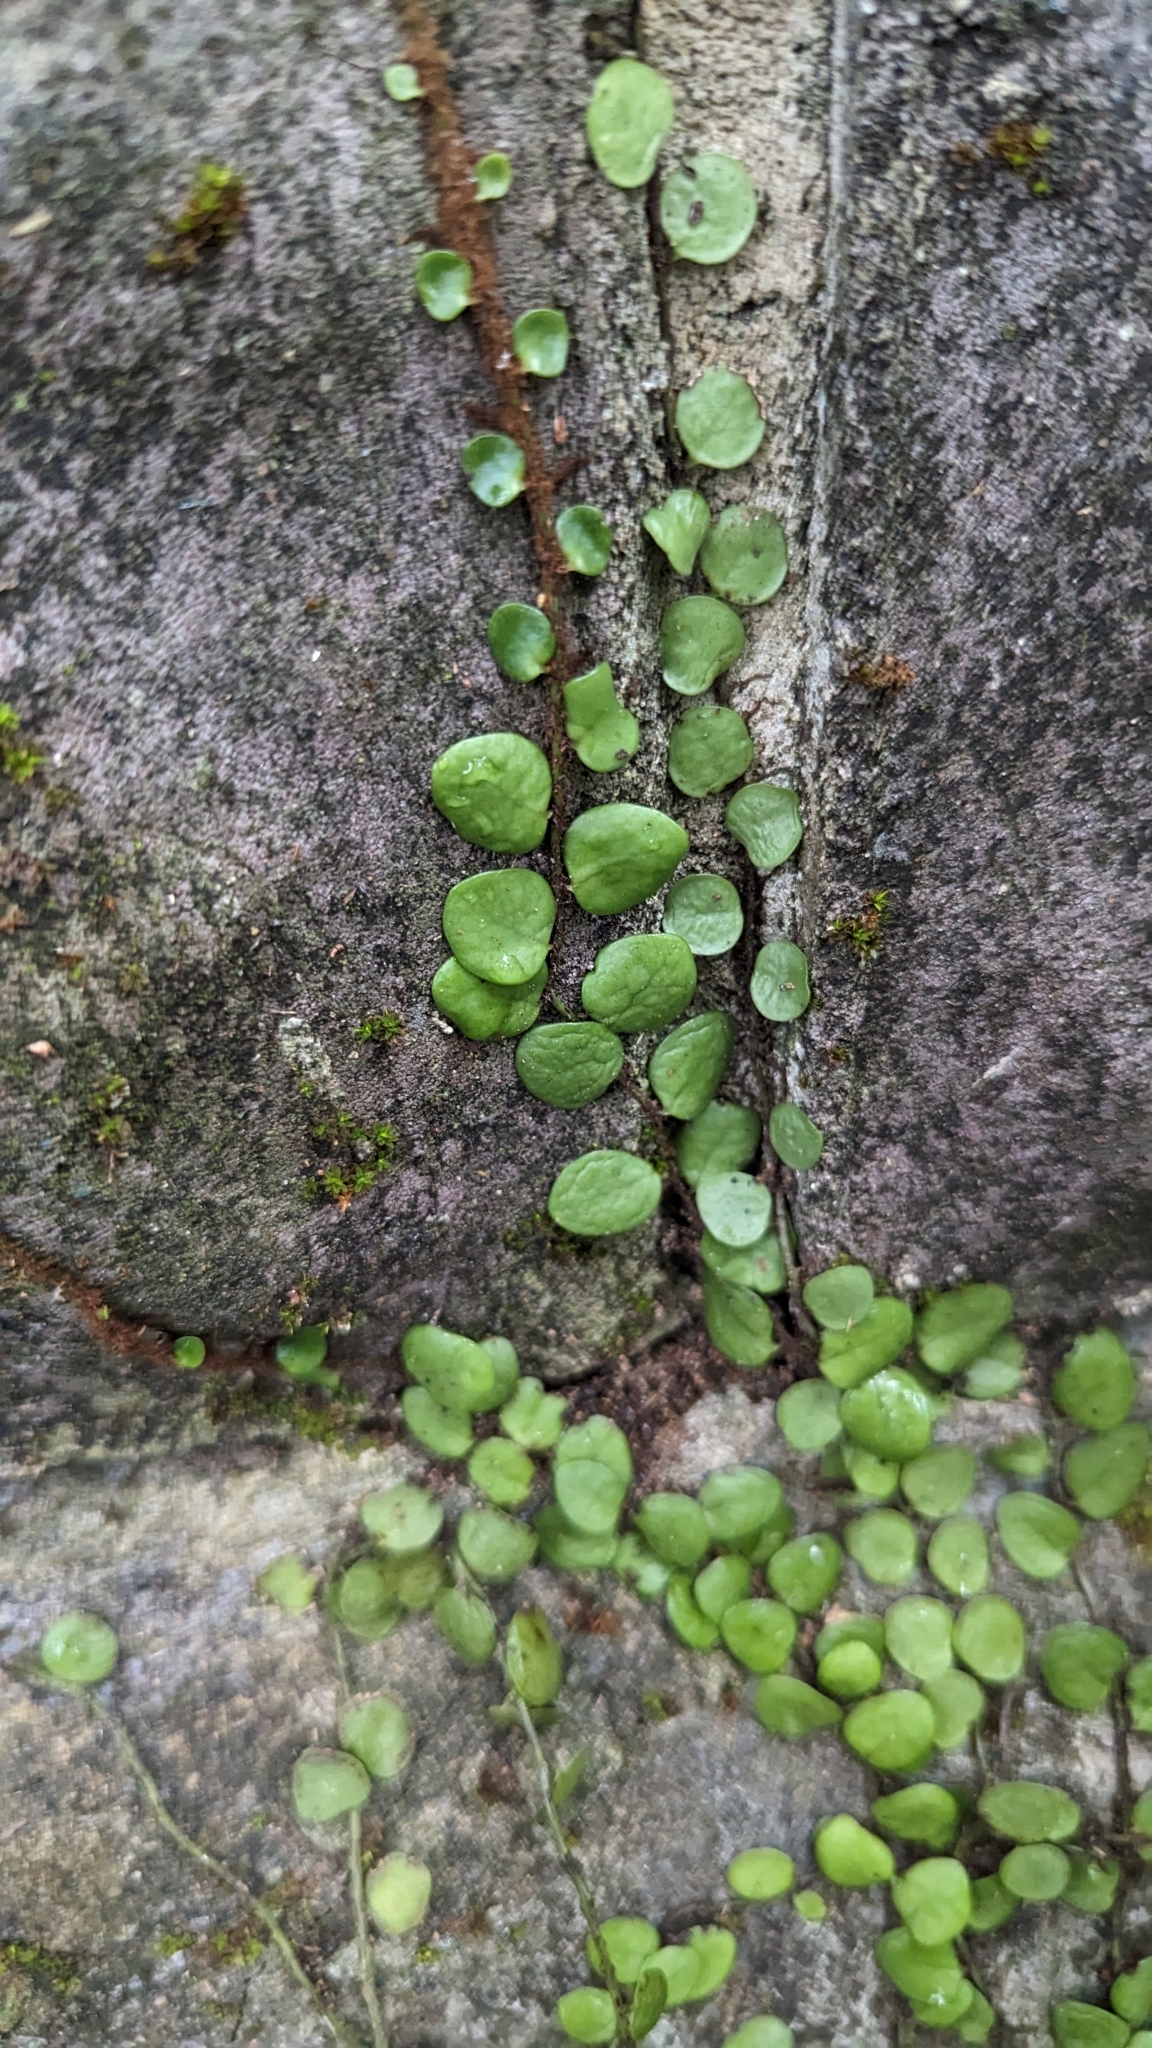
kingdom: Plantae
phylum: Tracheophyta
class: Polypodiopsida
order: Polypodiales
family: Polypodiaceae
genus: Lepisorus
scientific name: Lepisorus microphyllus
